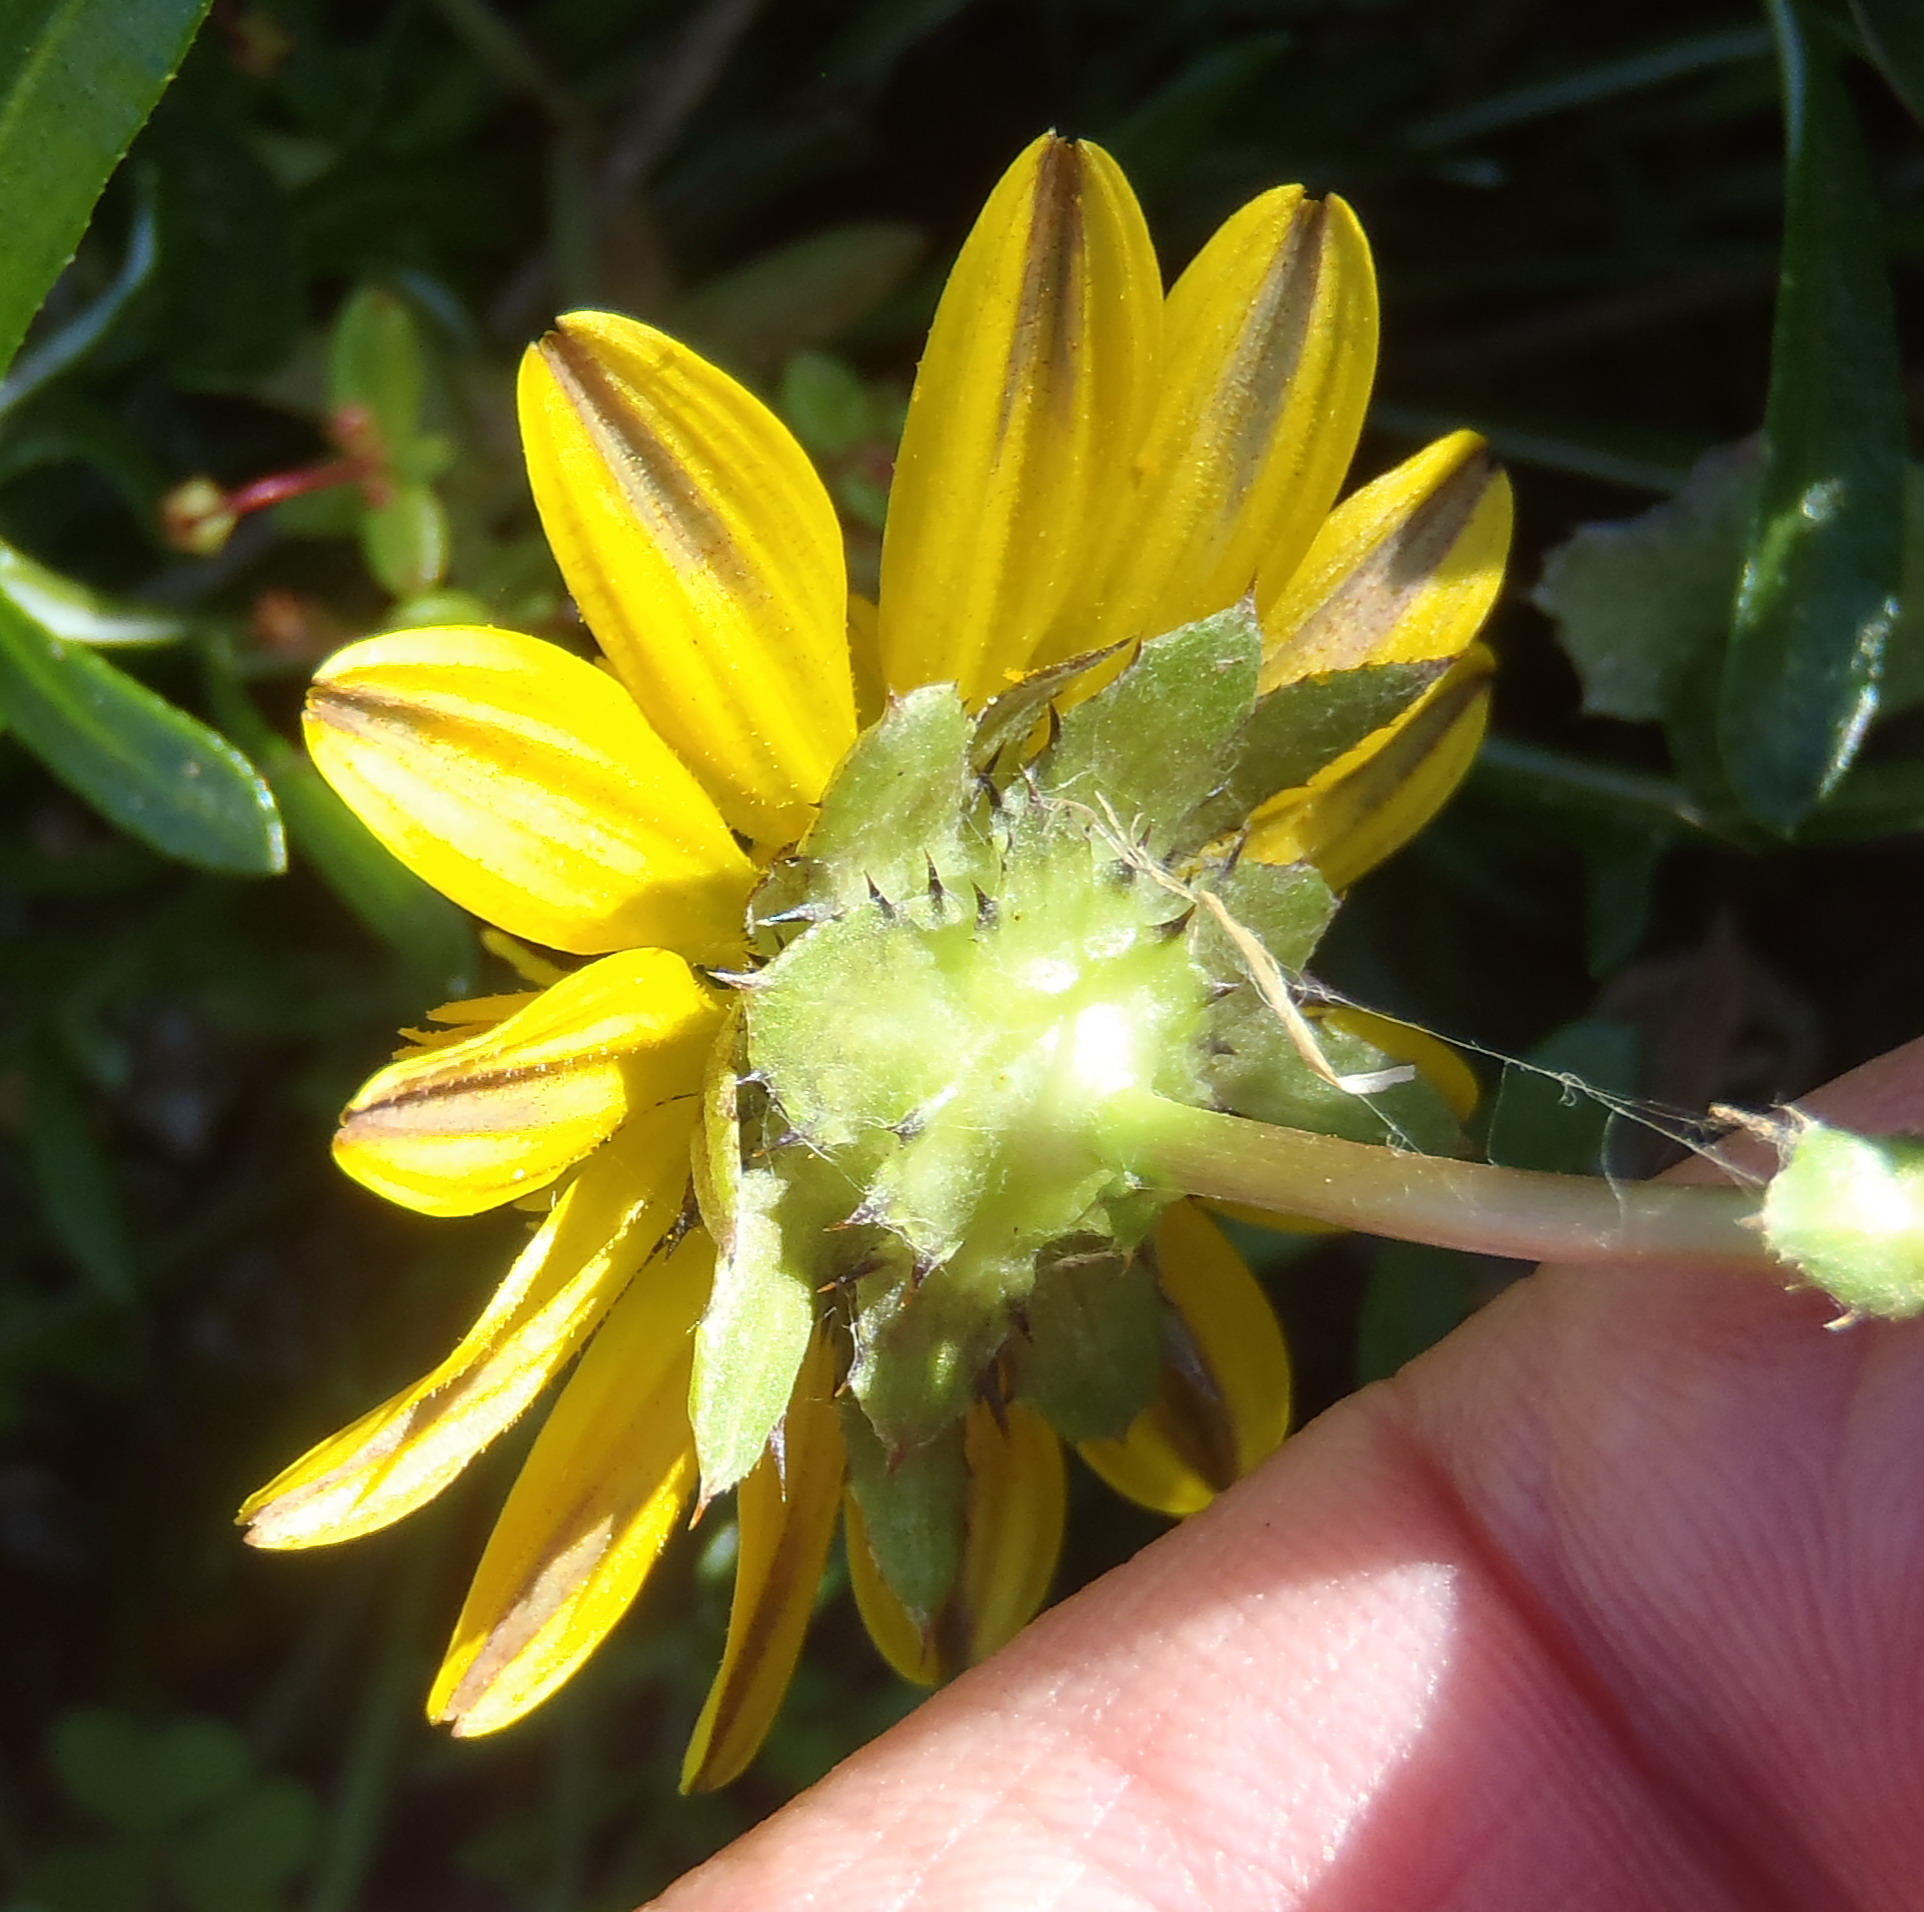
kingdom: Plantae
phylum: Tracheophyta
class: Magnoliopsida
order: Asterales
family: Asteraceae
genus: Cuspidia
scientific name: Cuspidia cernua
